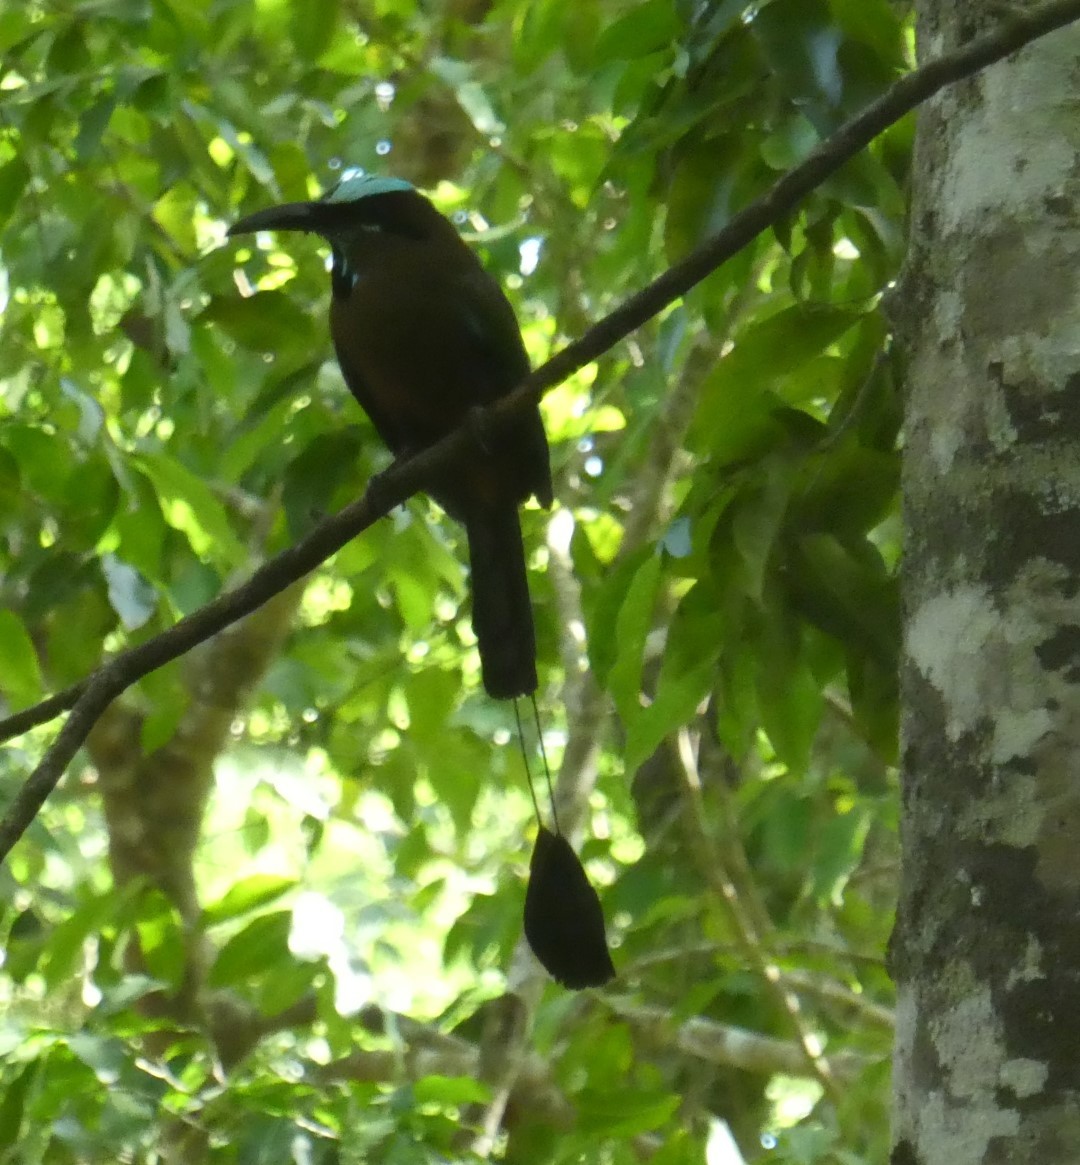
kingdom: Animalia
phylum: Chordata
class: Aves
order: Coraciiformes
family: Momotidae
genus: Eumomota
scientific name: Eumomota superciliosa
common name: Turquoise-browed motmot
